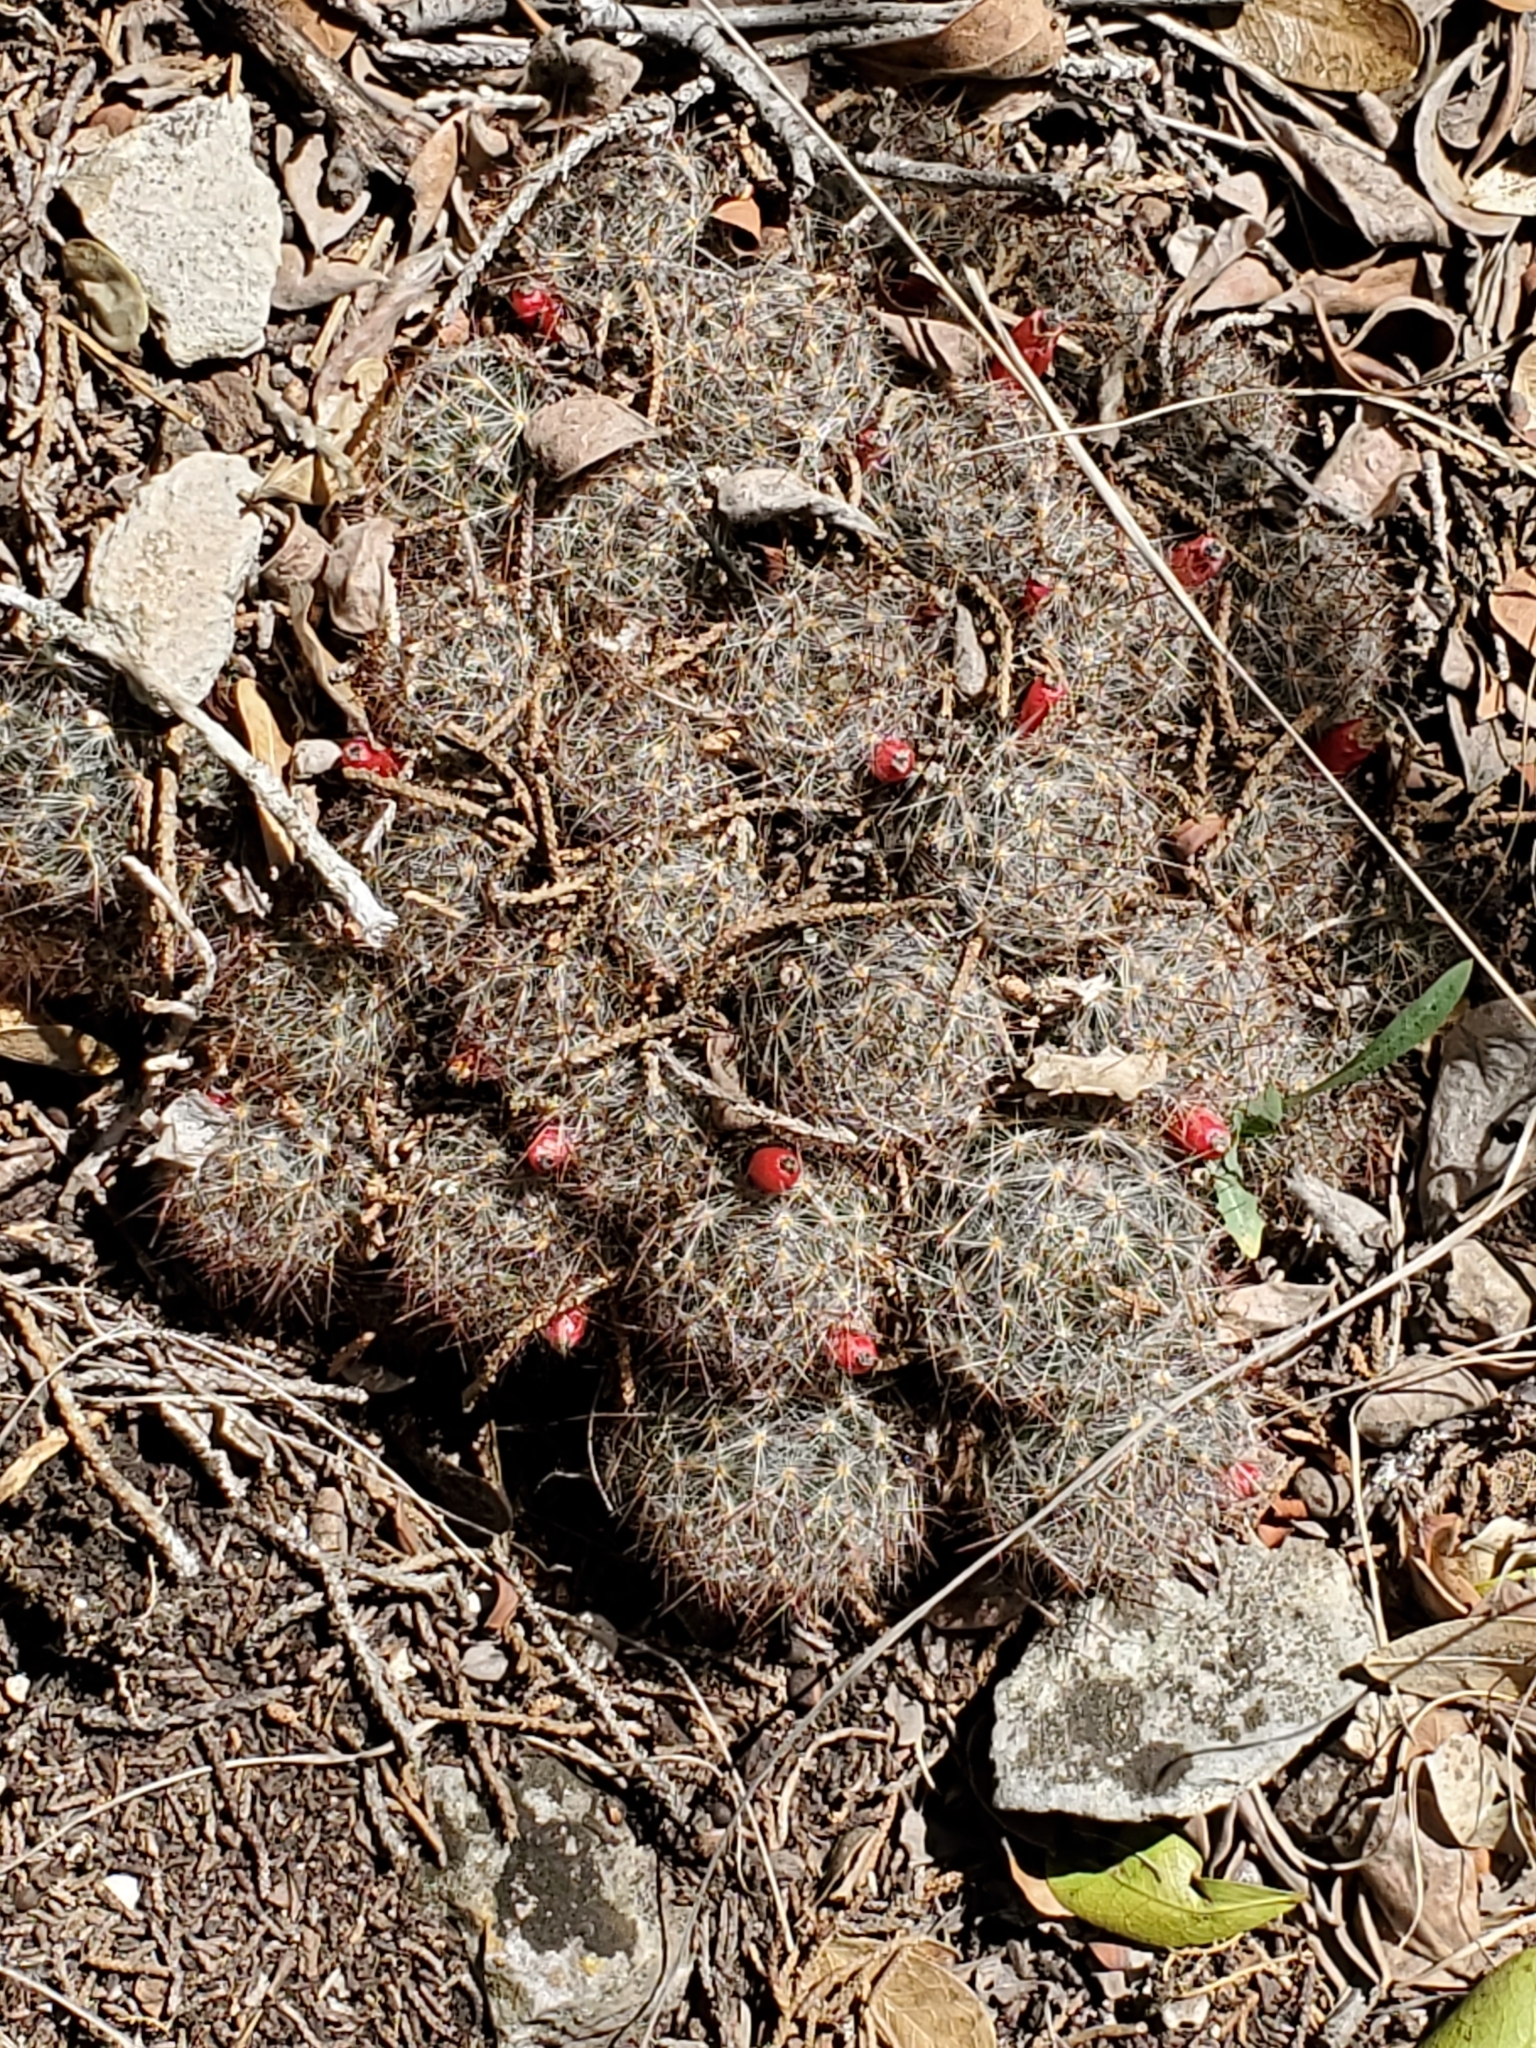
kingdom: Plantae
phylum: Tracheophyta
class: Magnoliopsida
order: Caryophyllales
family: Cactaceae
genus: Mammillaria
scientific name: Mammillaria prolifera
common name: Texas nipple cactus
